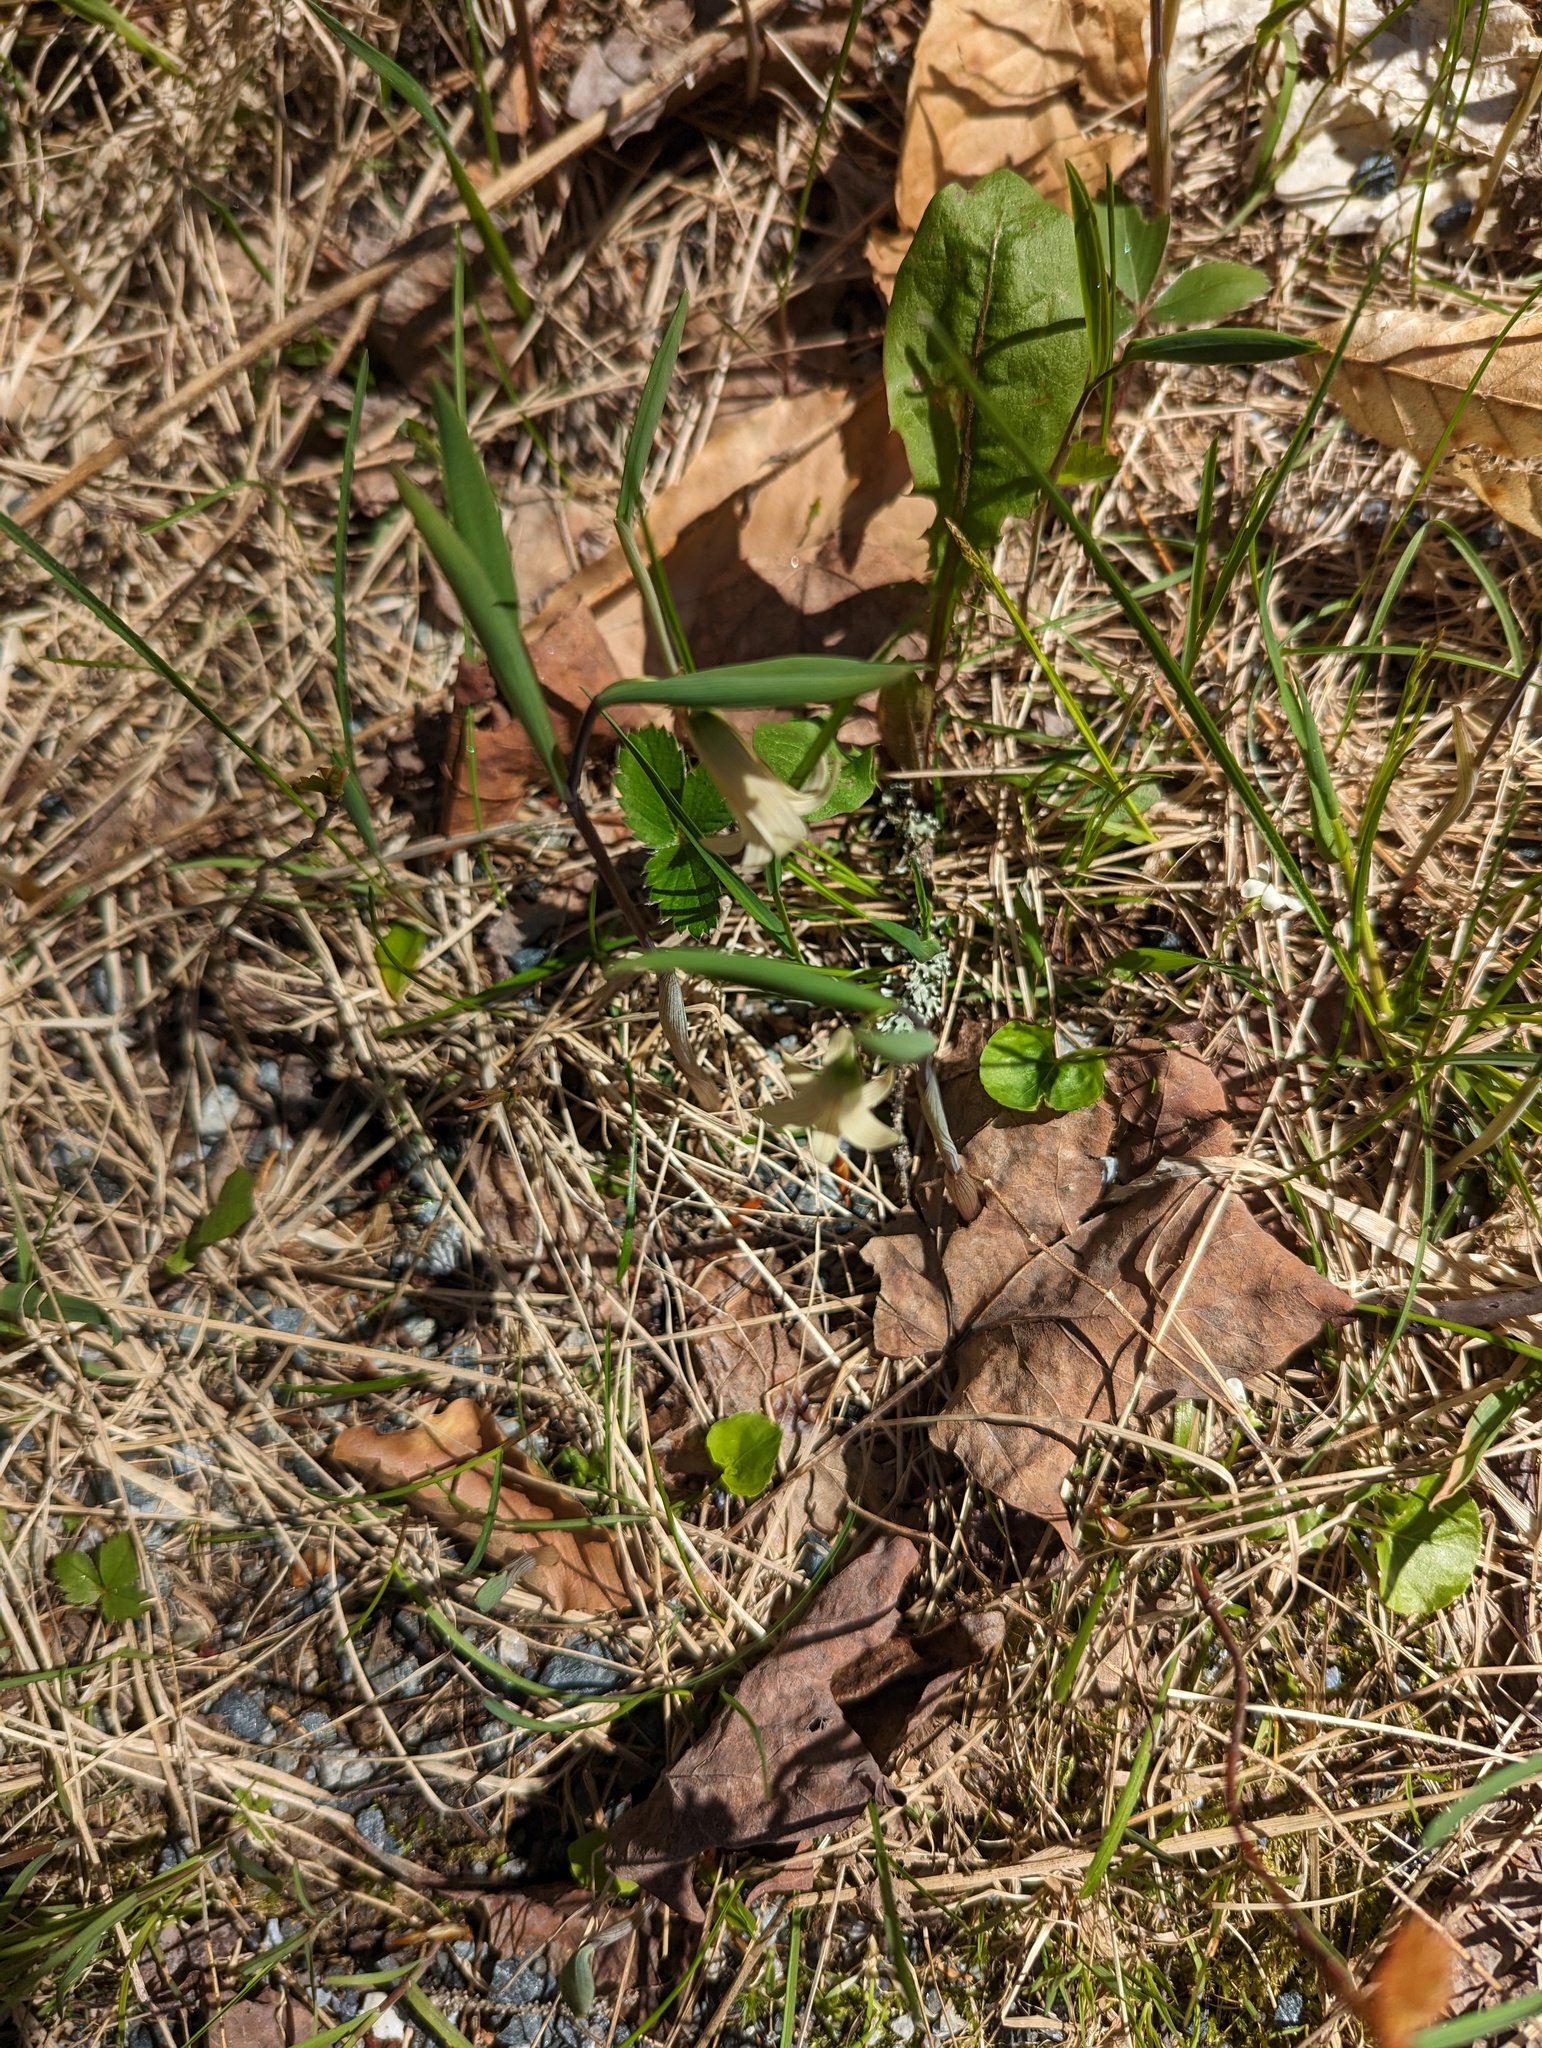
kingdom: Plantae
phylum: Tracheophyta
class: Liliopsida
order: Liliales
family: Colchicaceae
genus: Uvularia
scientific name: Uvularia sessilifolia
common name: Straw-lily
